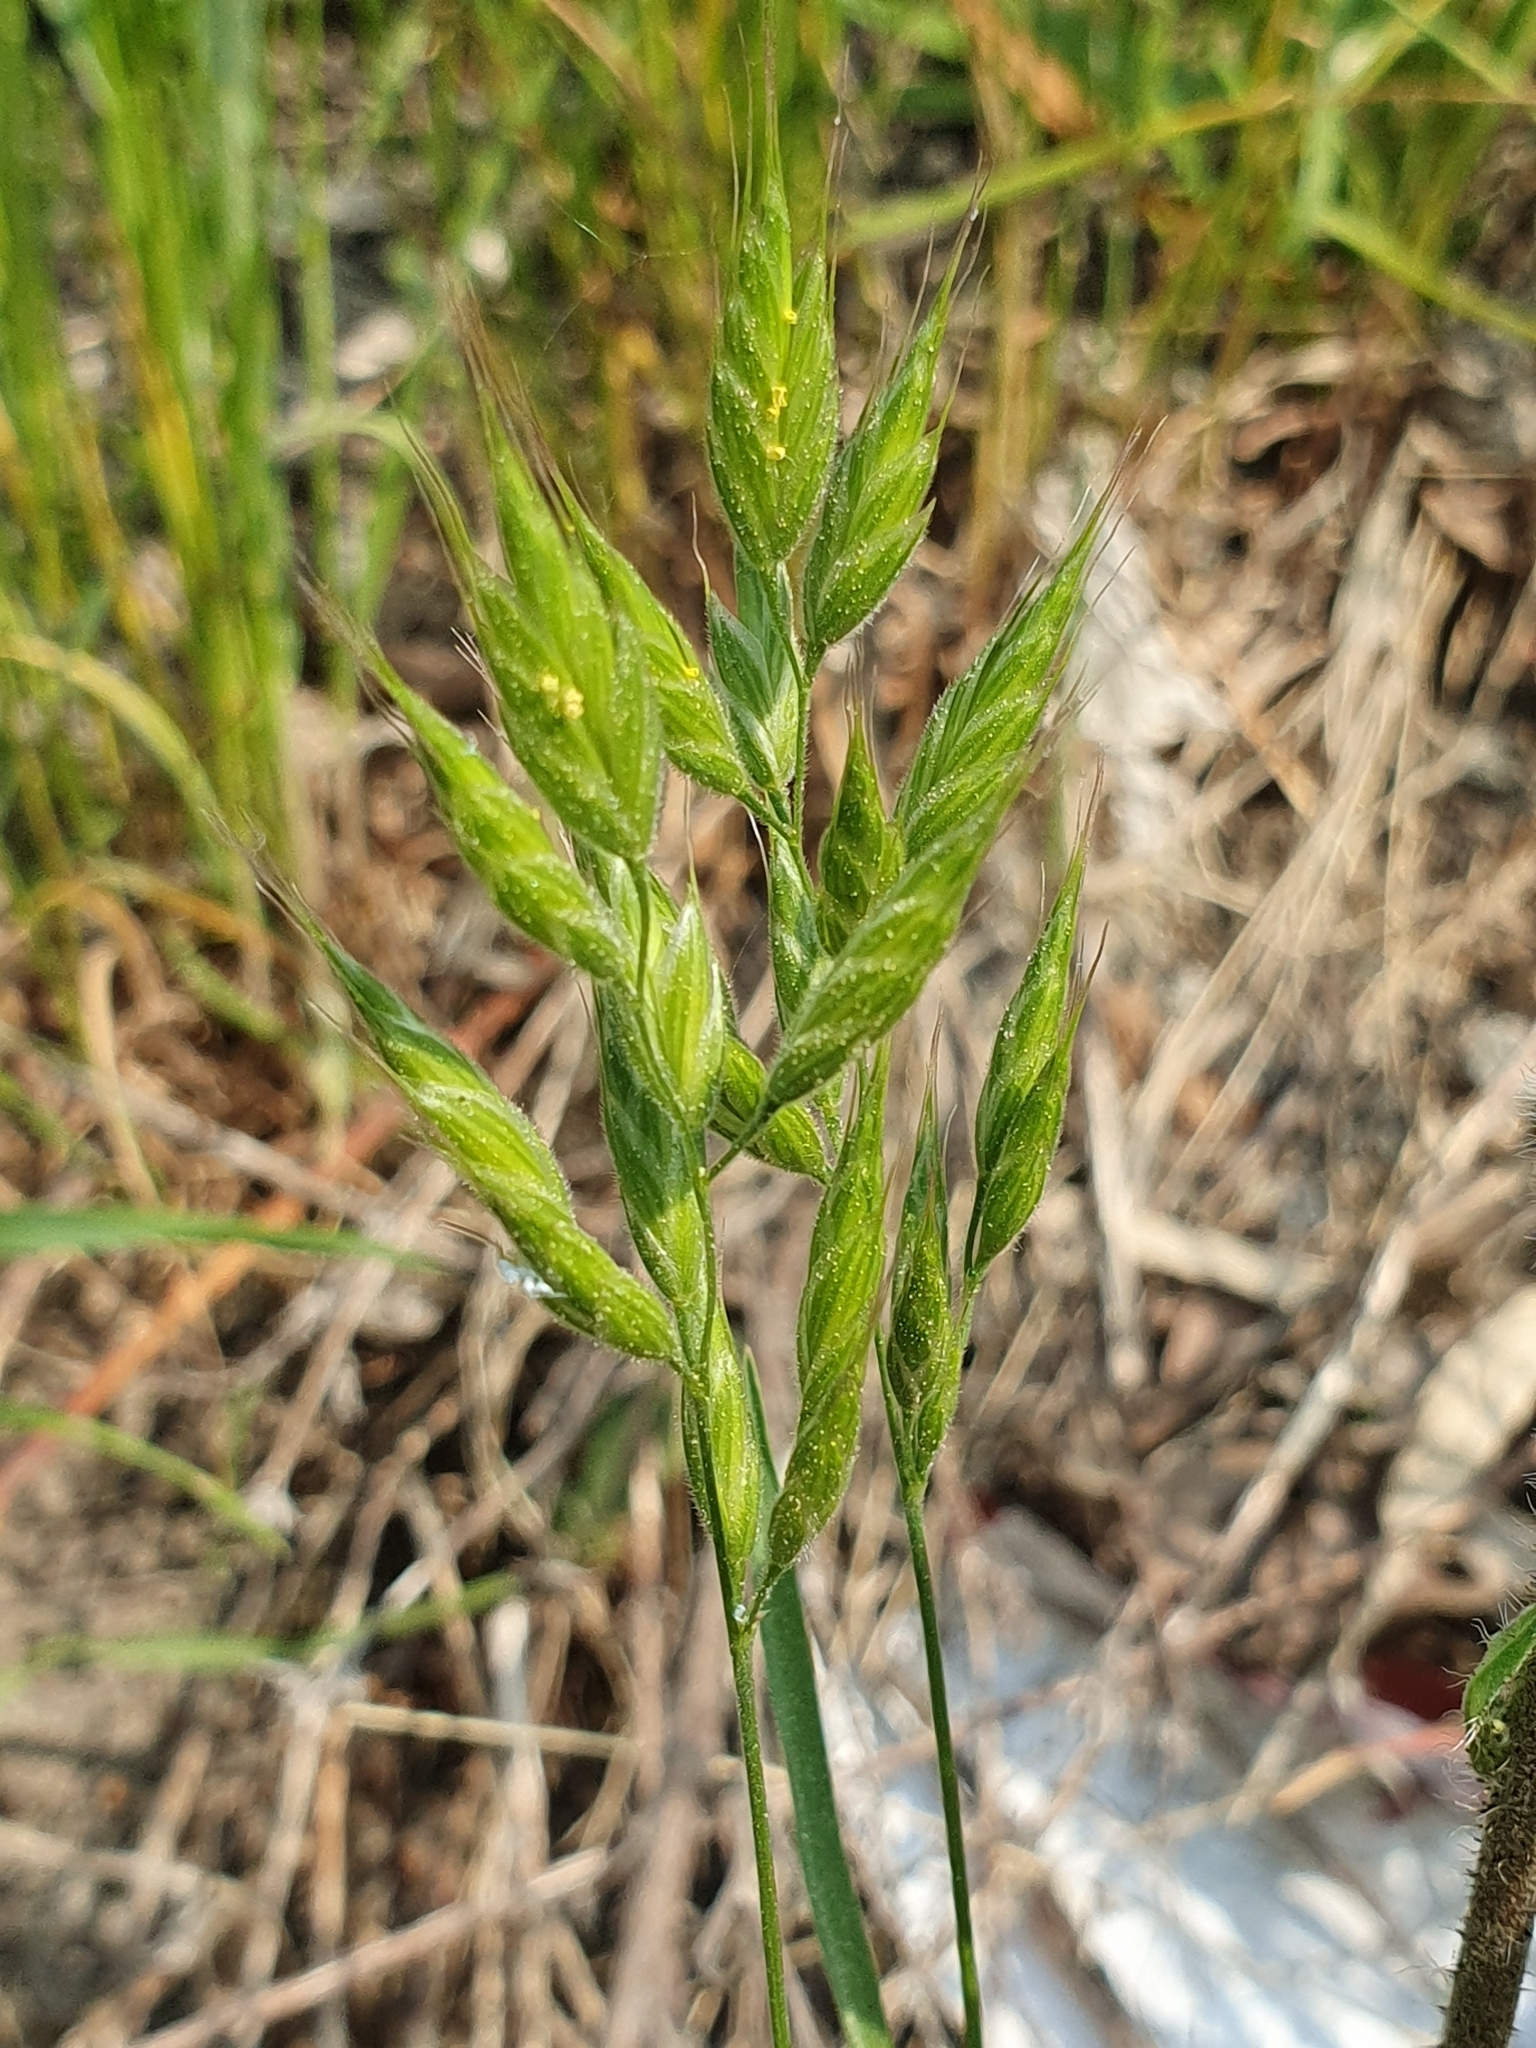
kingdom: Plantae
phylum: Tracheophyta
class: Liliopsida
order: Poales
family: Poaceae
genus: Bromus
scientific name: Bromus hordeaceus
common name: Soft brome
